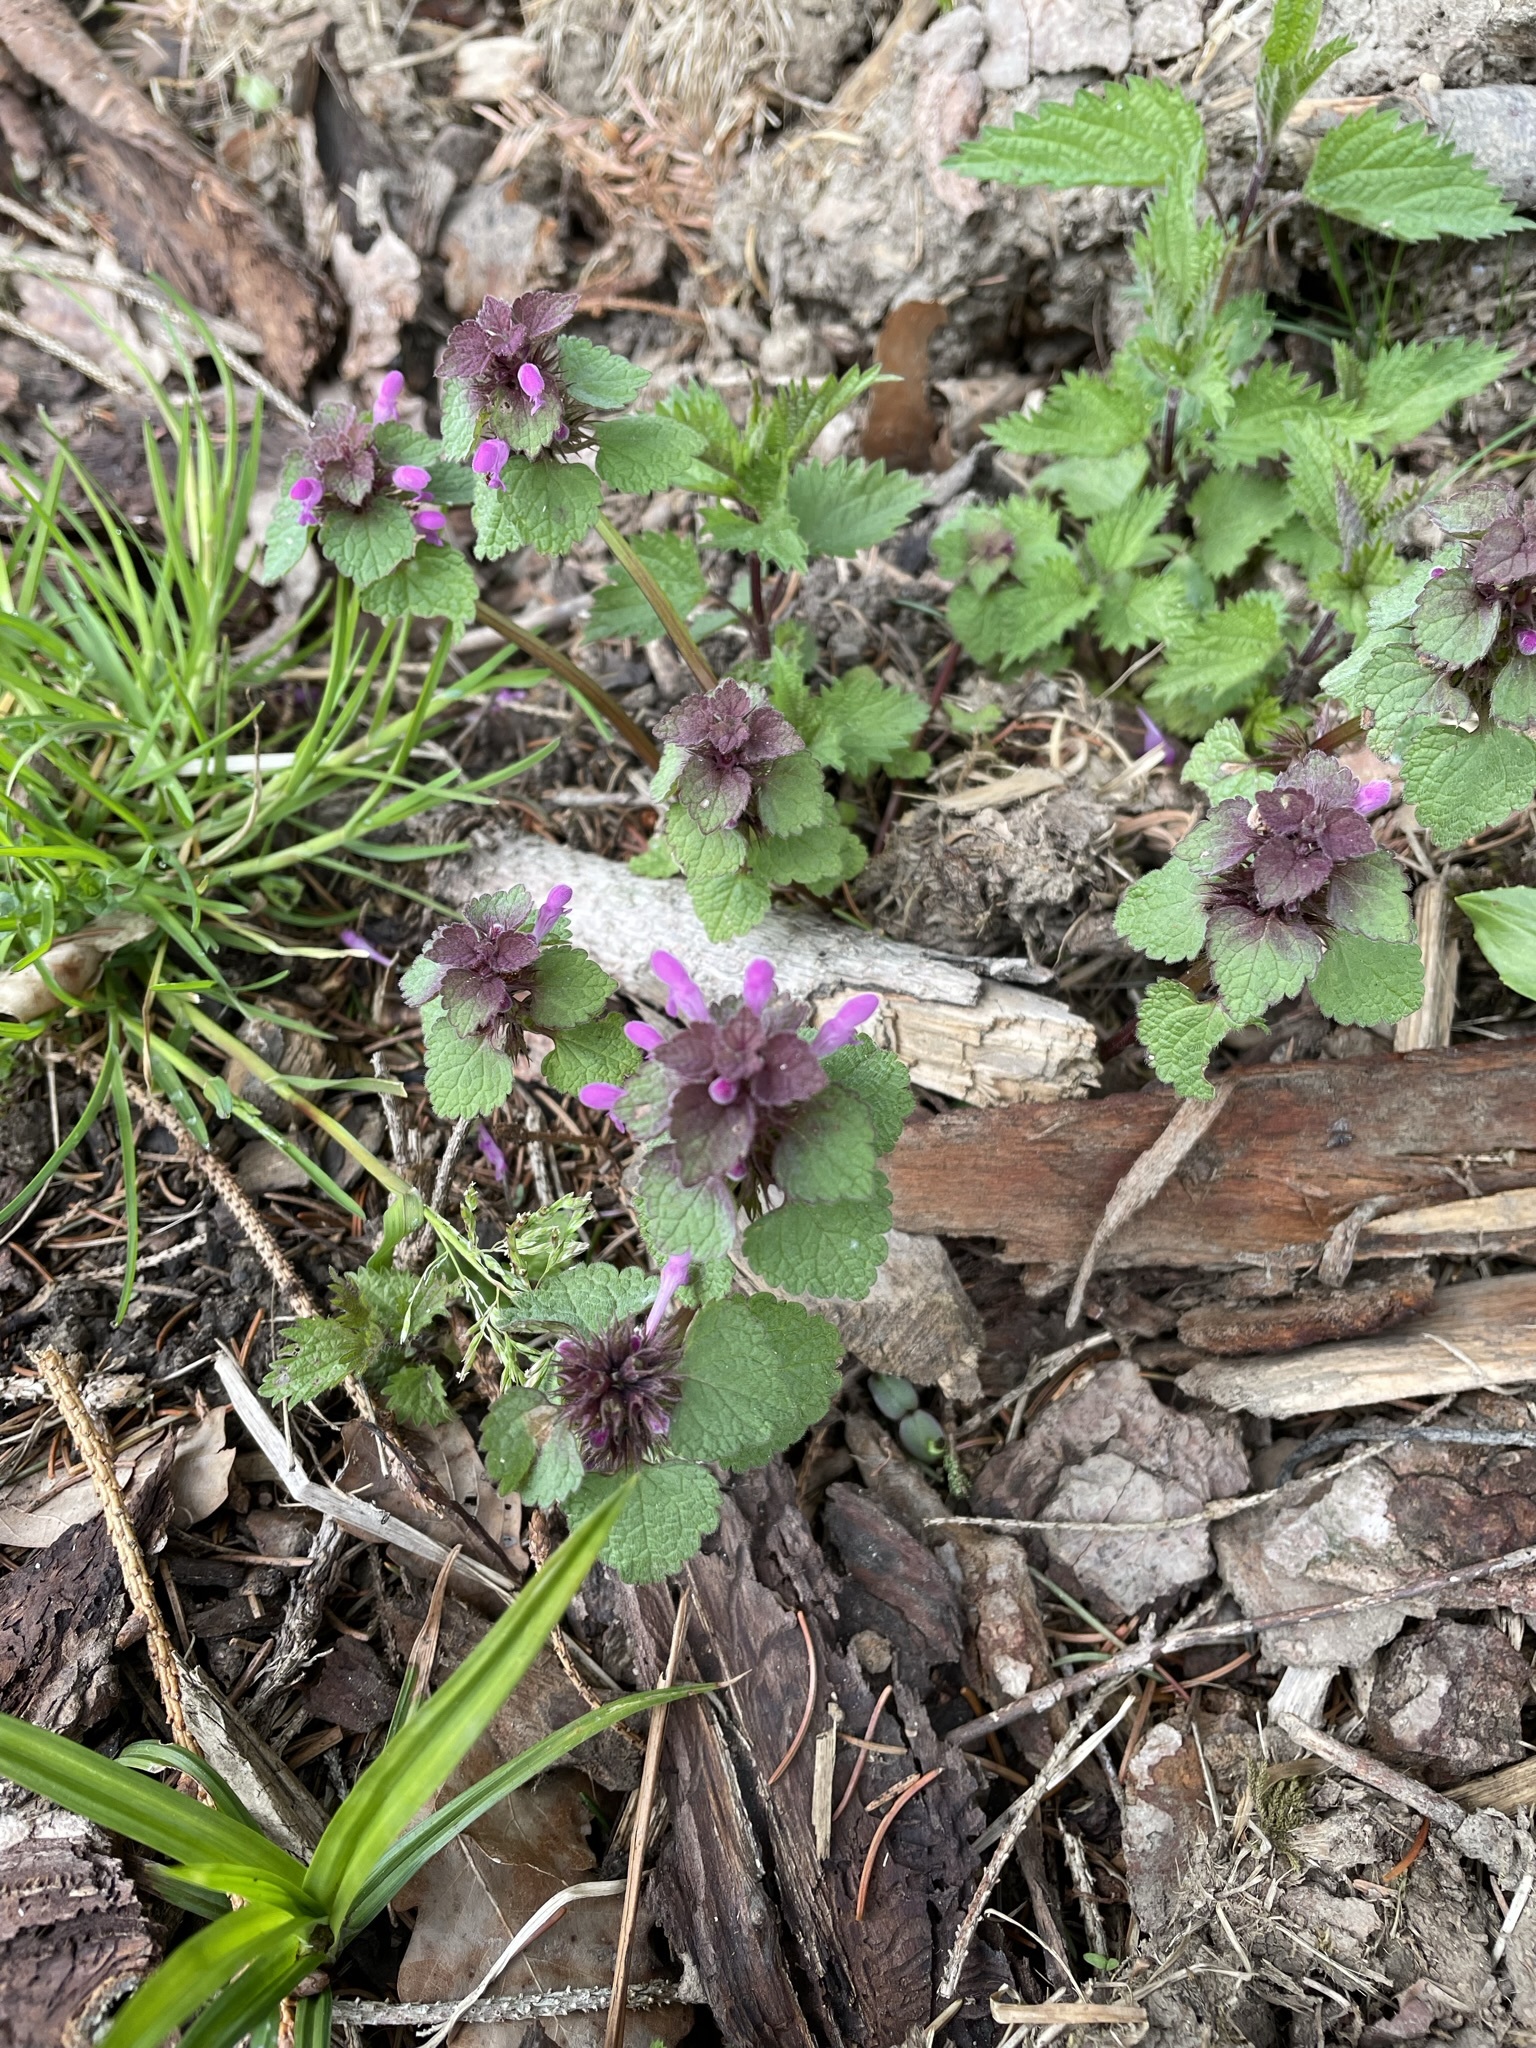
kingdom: Plantae
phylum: Tracheophyta
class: Magnoliopsida
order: Lamiales
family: Lamiaceae
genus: Lamium
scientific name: Lamium purpureum
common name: Red dead-nettle
